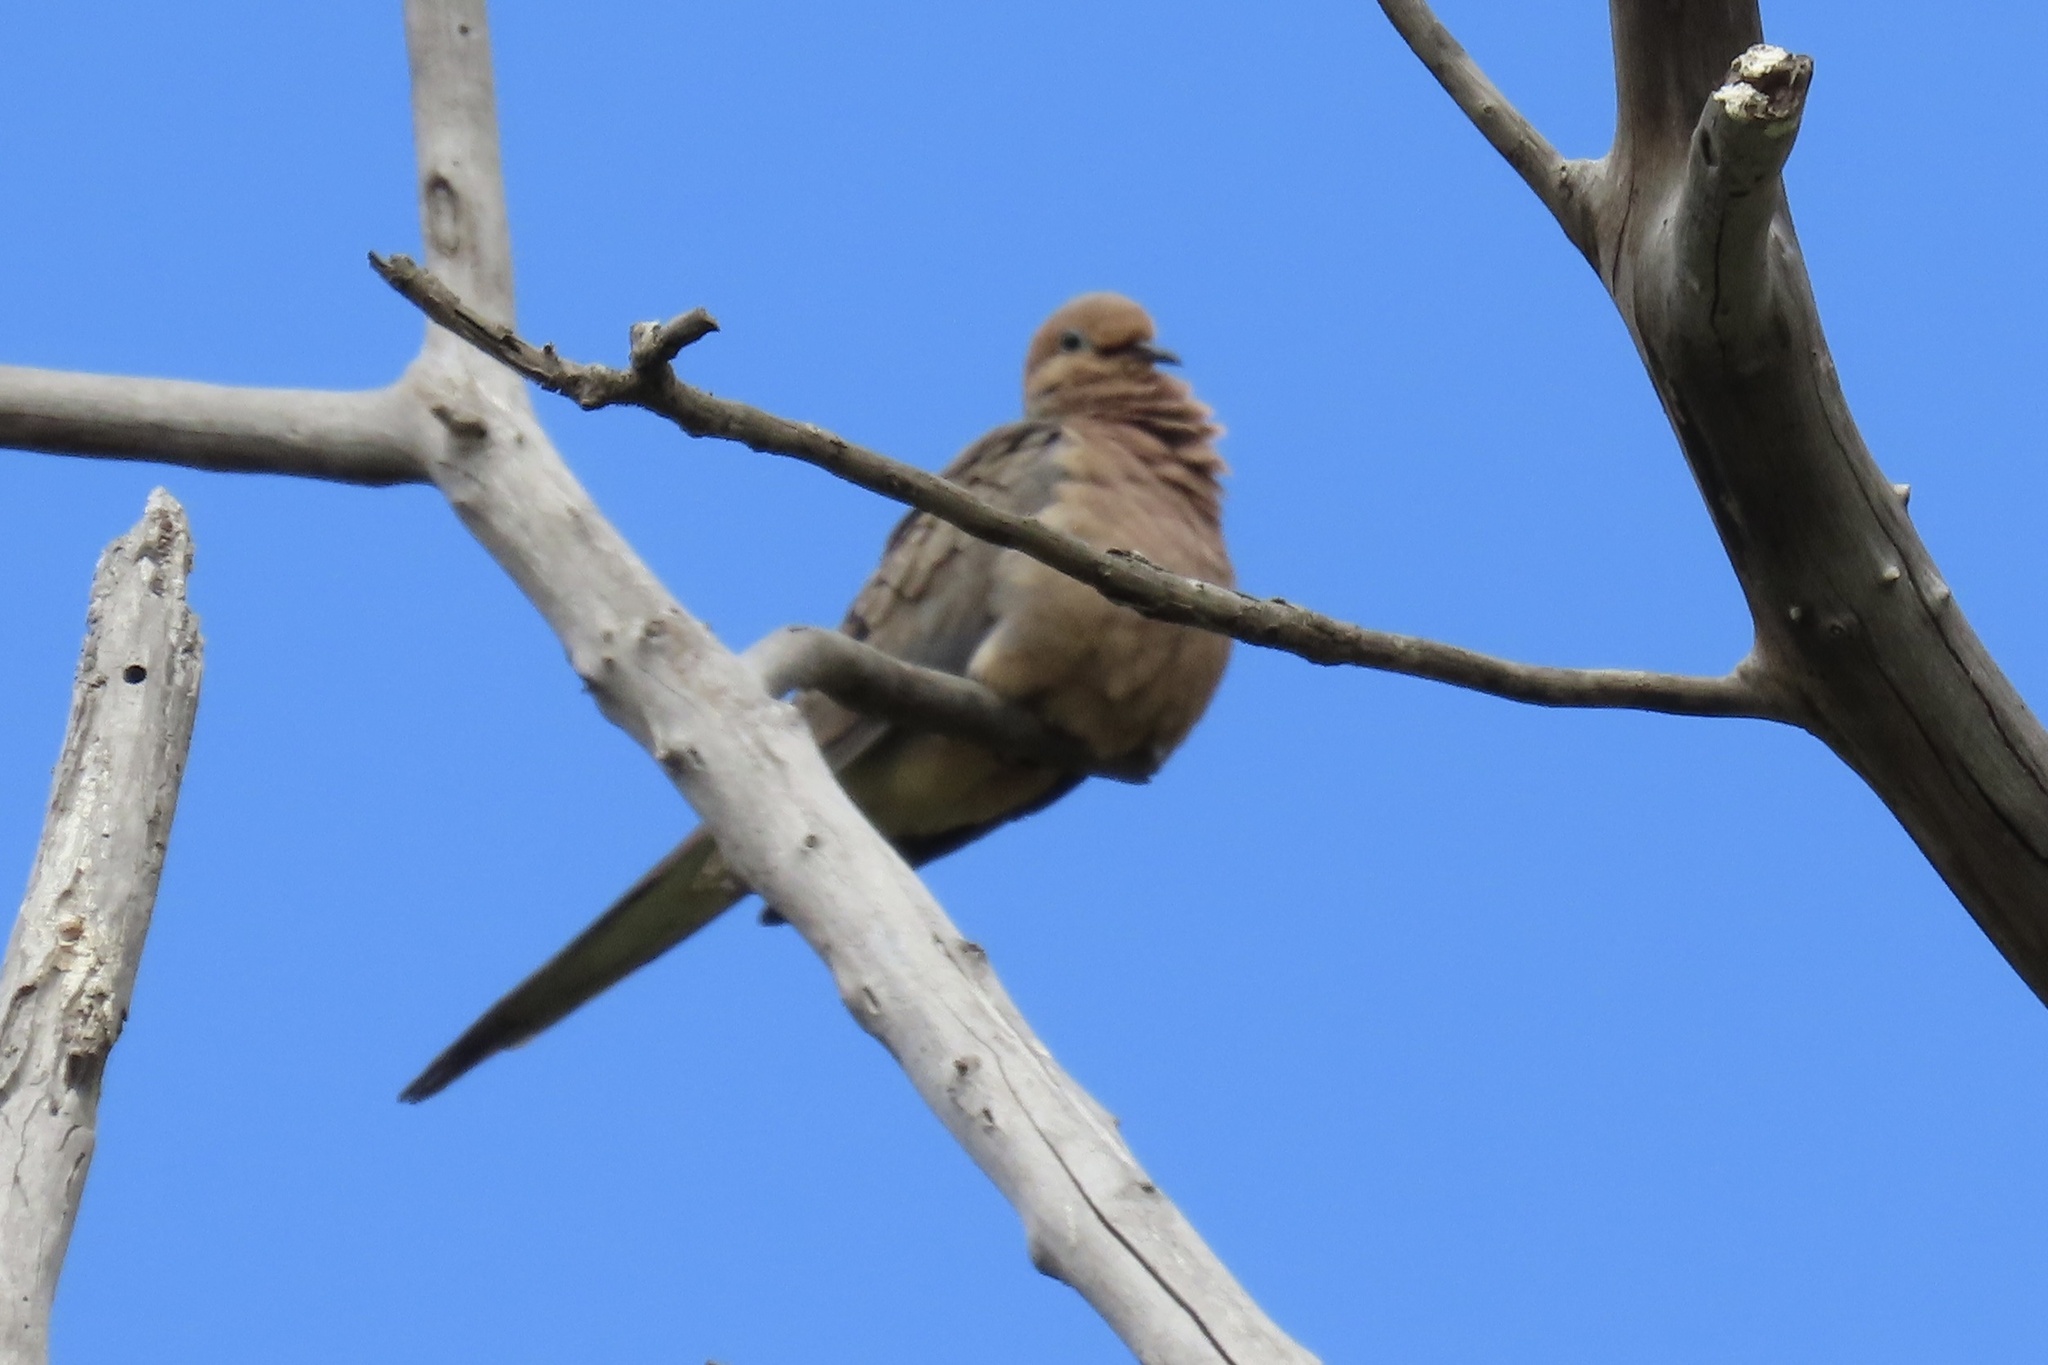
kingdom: Animalia
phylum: Chordata
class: Aves
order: Columbiformes
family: Columbidae
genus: Zenaida
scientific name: Zenaida macroura
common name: Mourning dove
